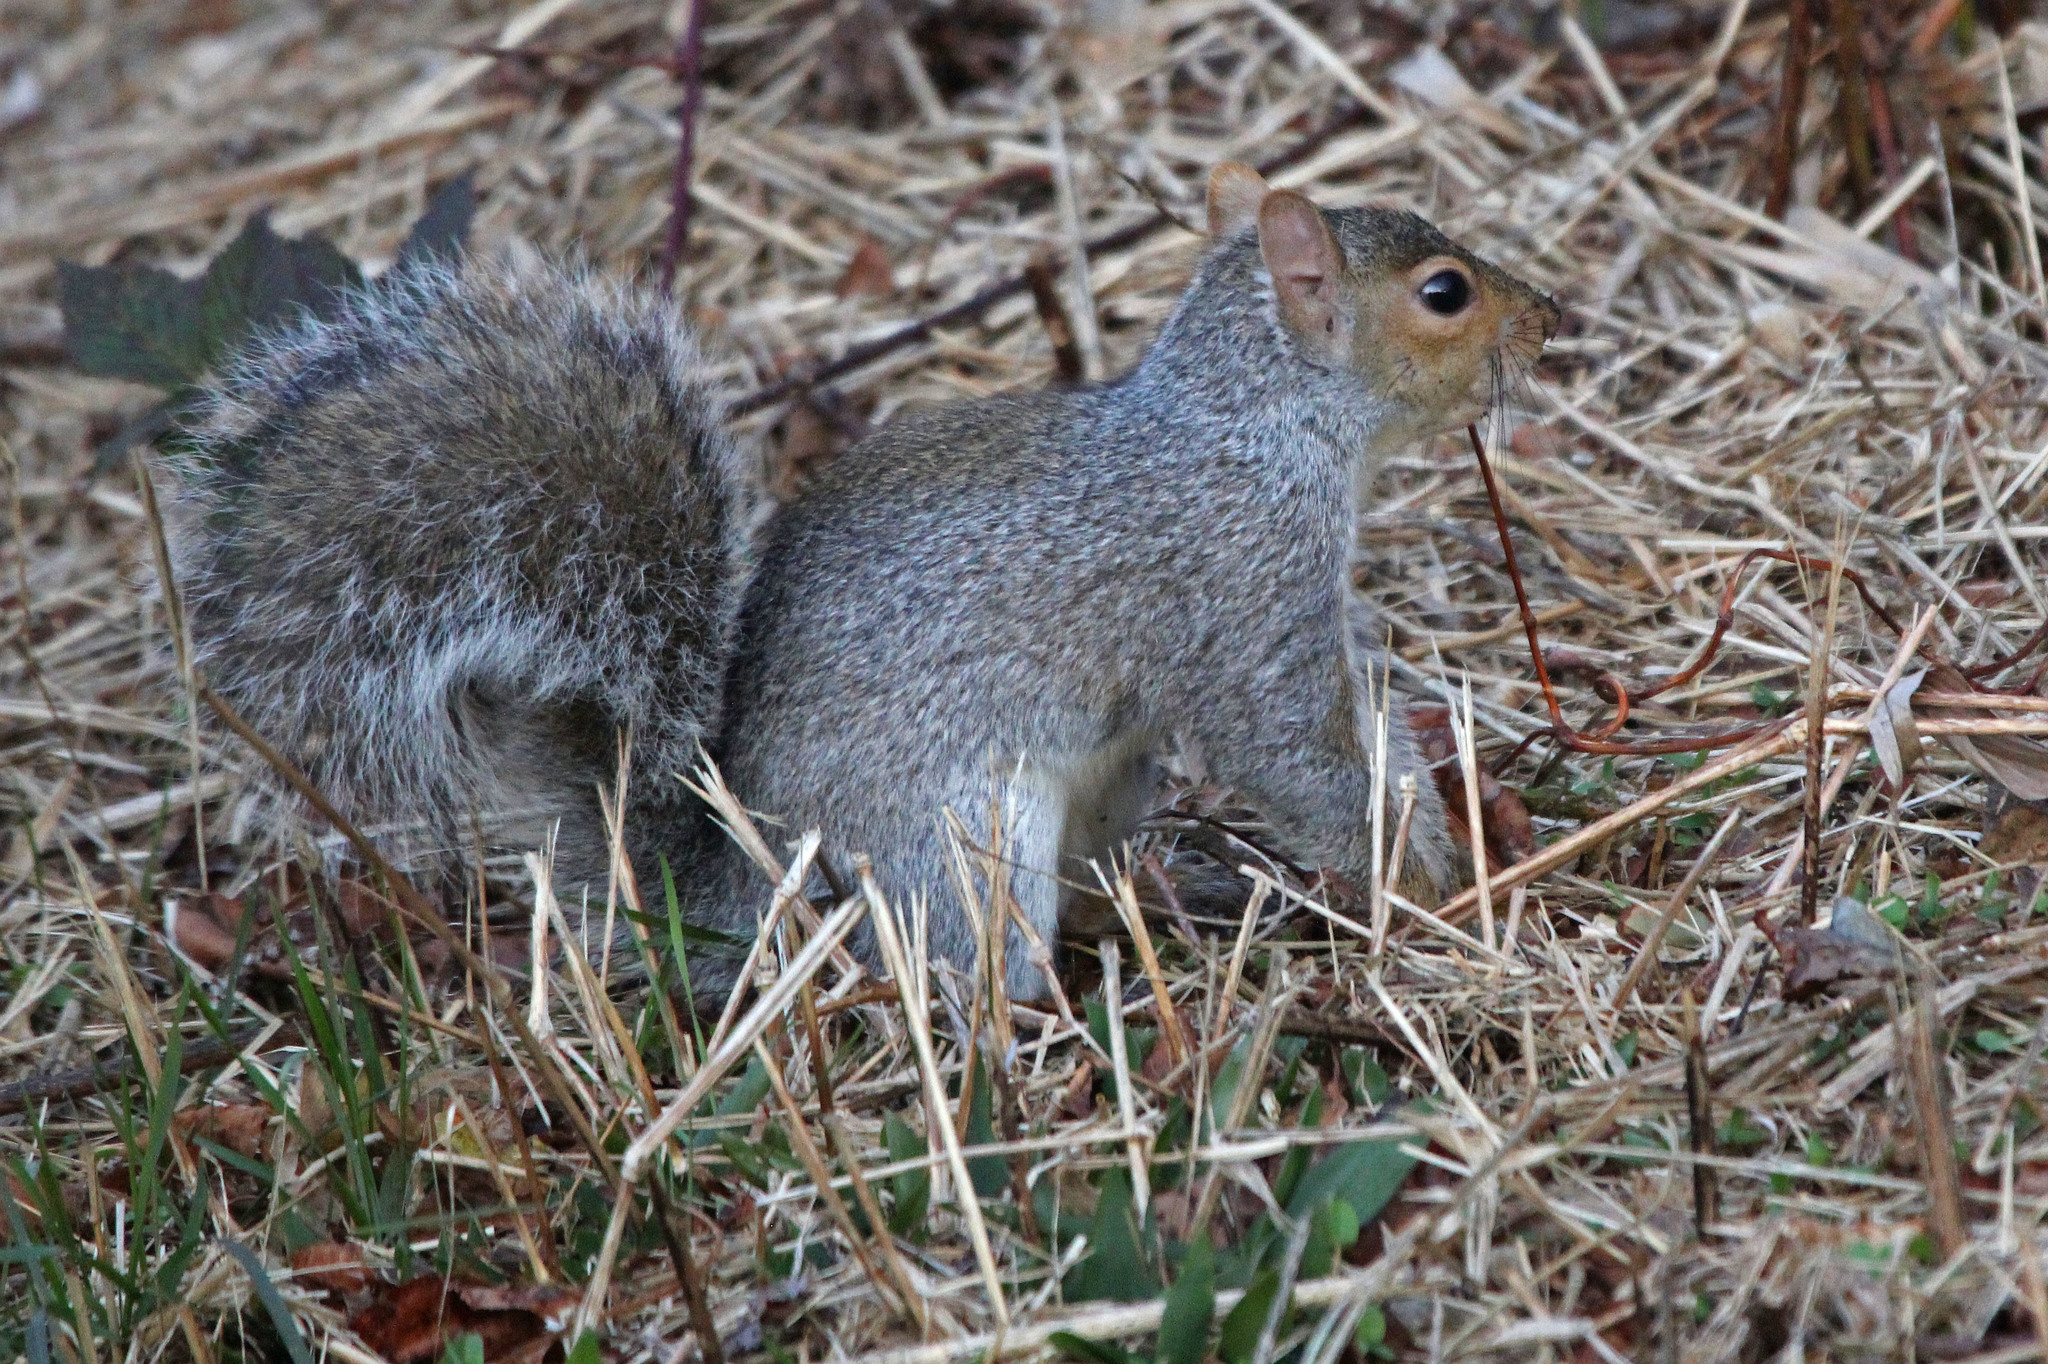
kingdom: Animalia
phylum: Chordata
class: Mammalia
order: Rodentia
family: Sciuridae
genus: Sciurus
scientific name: Sciurus carolinensis
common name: Eastern gray squirrel
